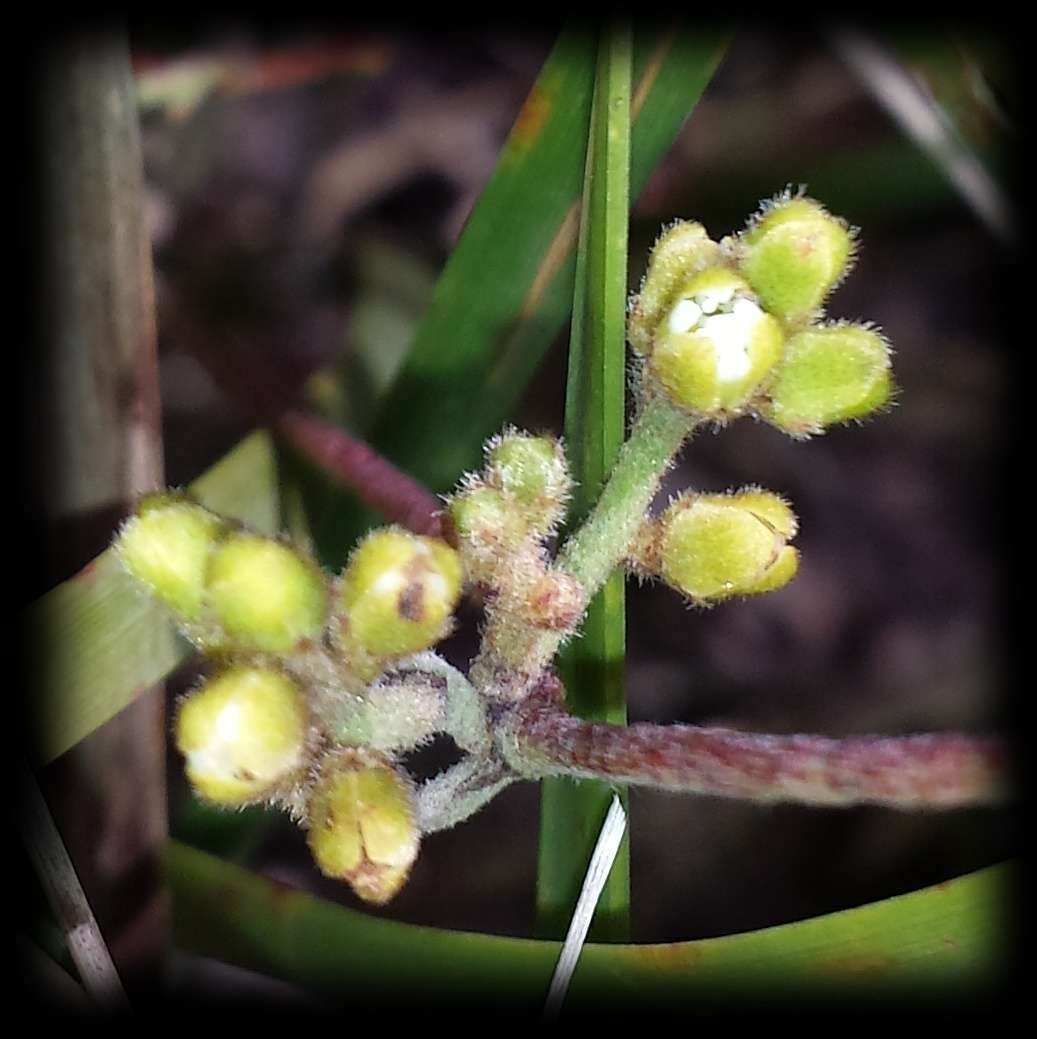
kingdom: Plantae
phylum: Tracheophyta
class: Magnoliopsida
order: Laurales
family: Lauraceae
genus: Cassytha
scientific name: Cassytha pubescens
